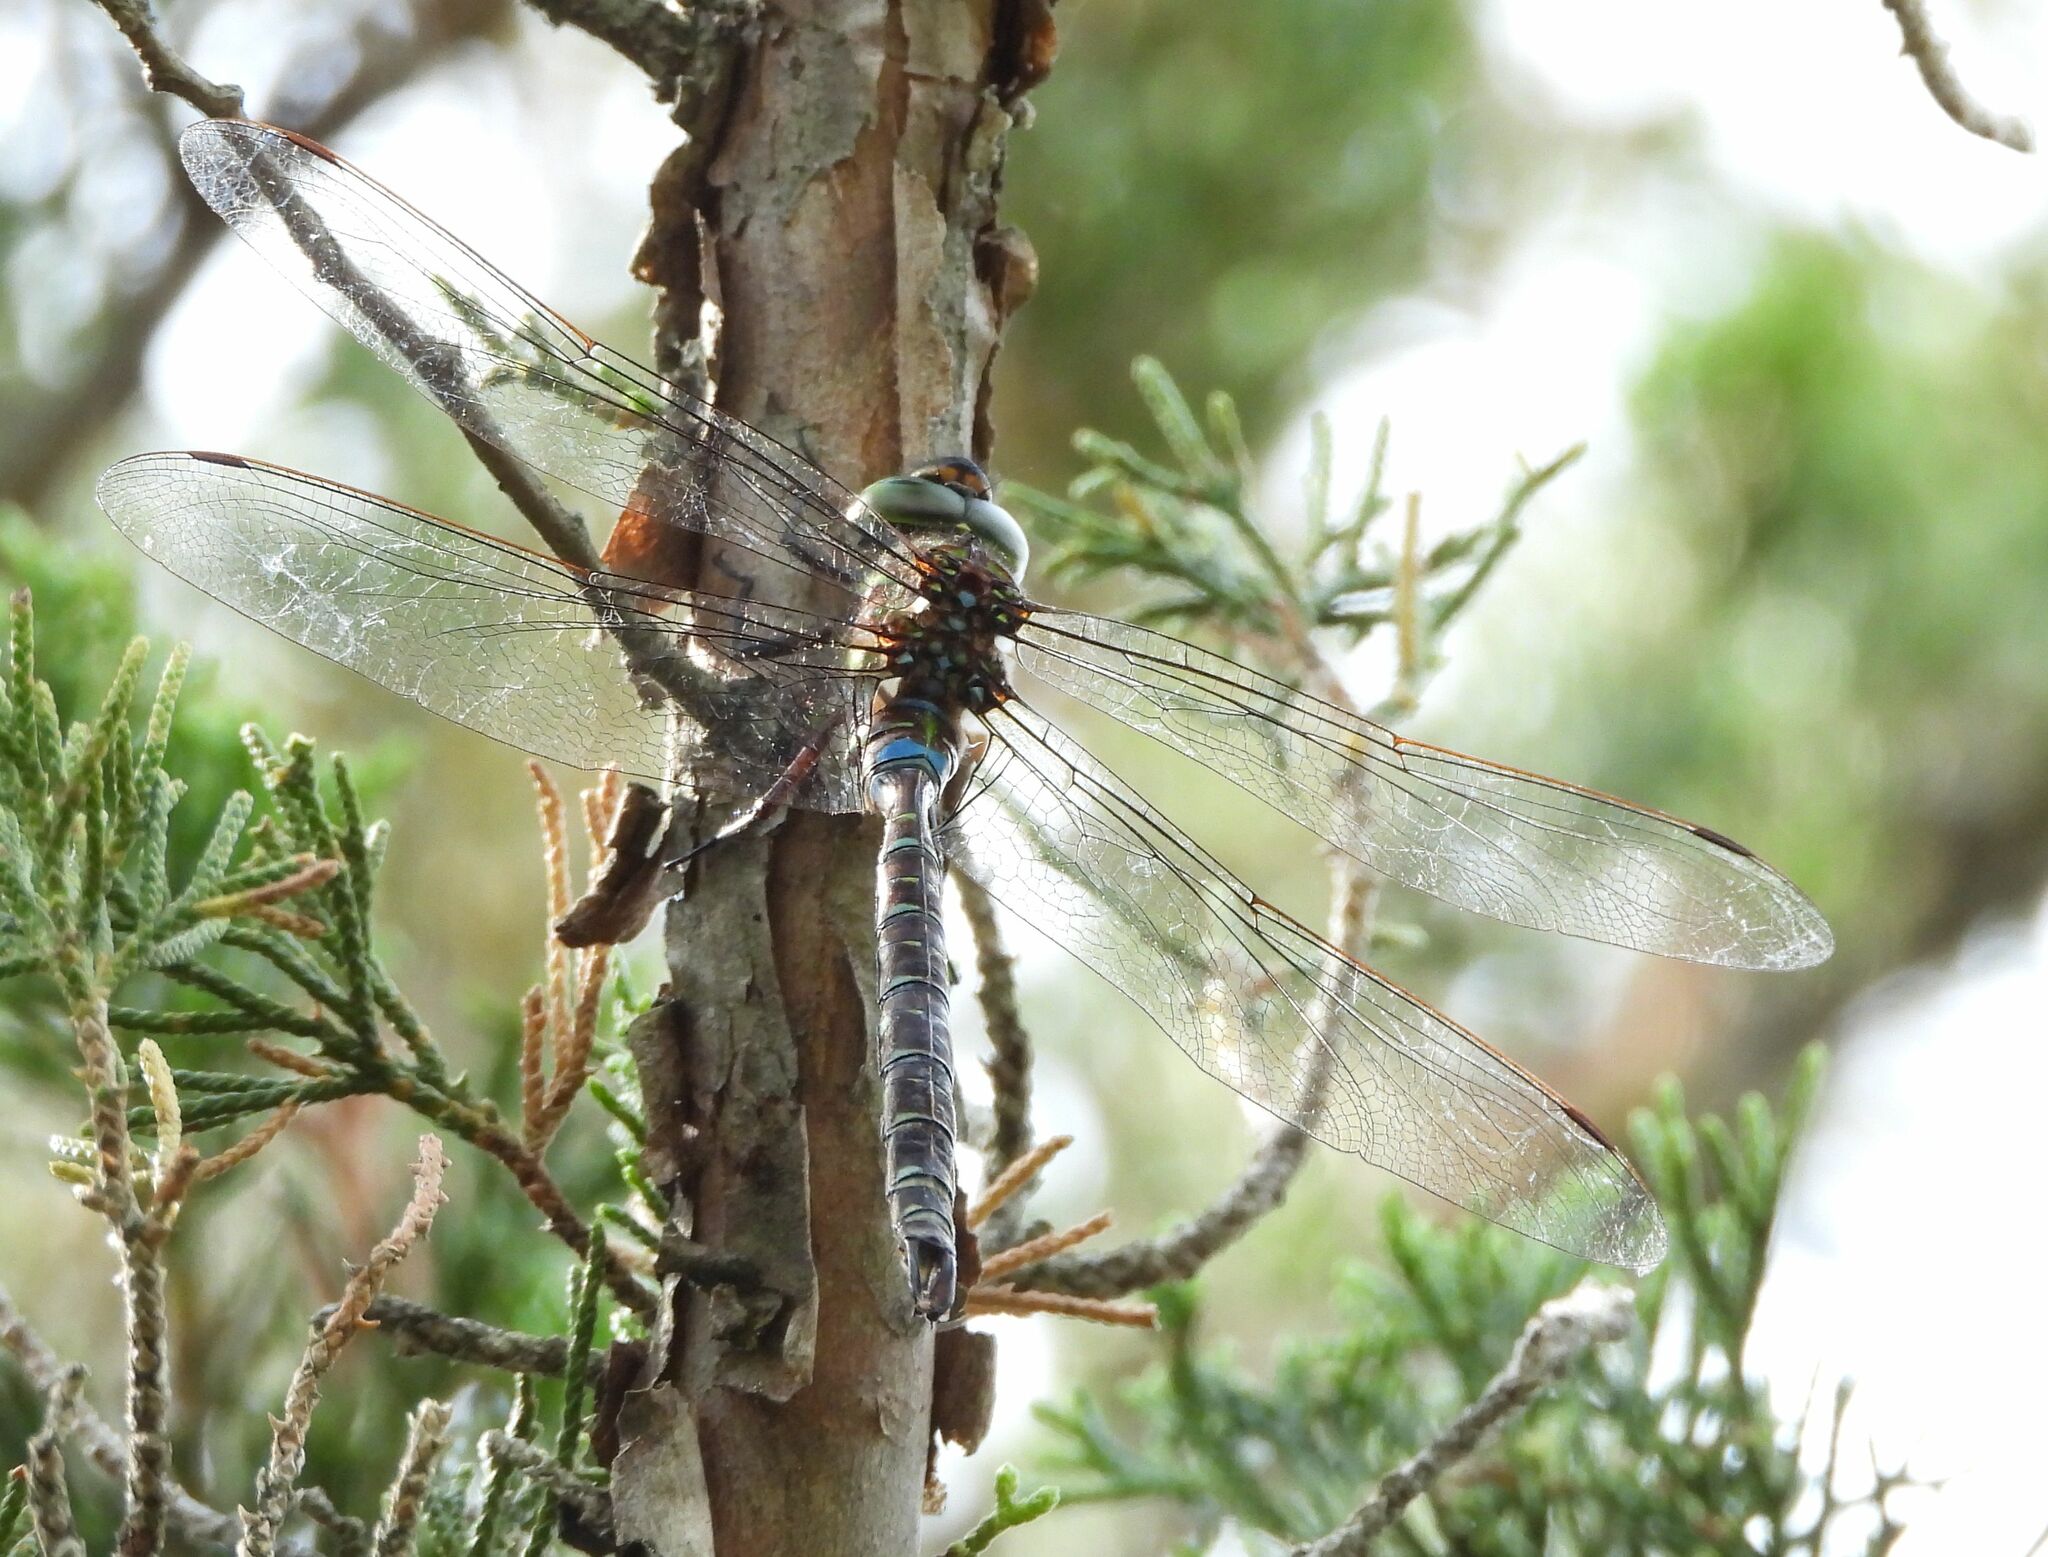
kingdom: Animalia
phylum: Arthropoda
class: Insecta
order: Odonata
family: Aeshnidae
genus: Aeshna
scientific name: Aeshna umbrosa
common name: Shadow darner
